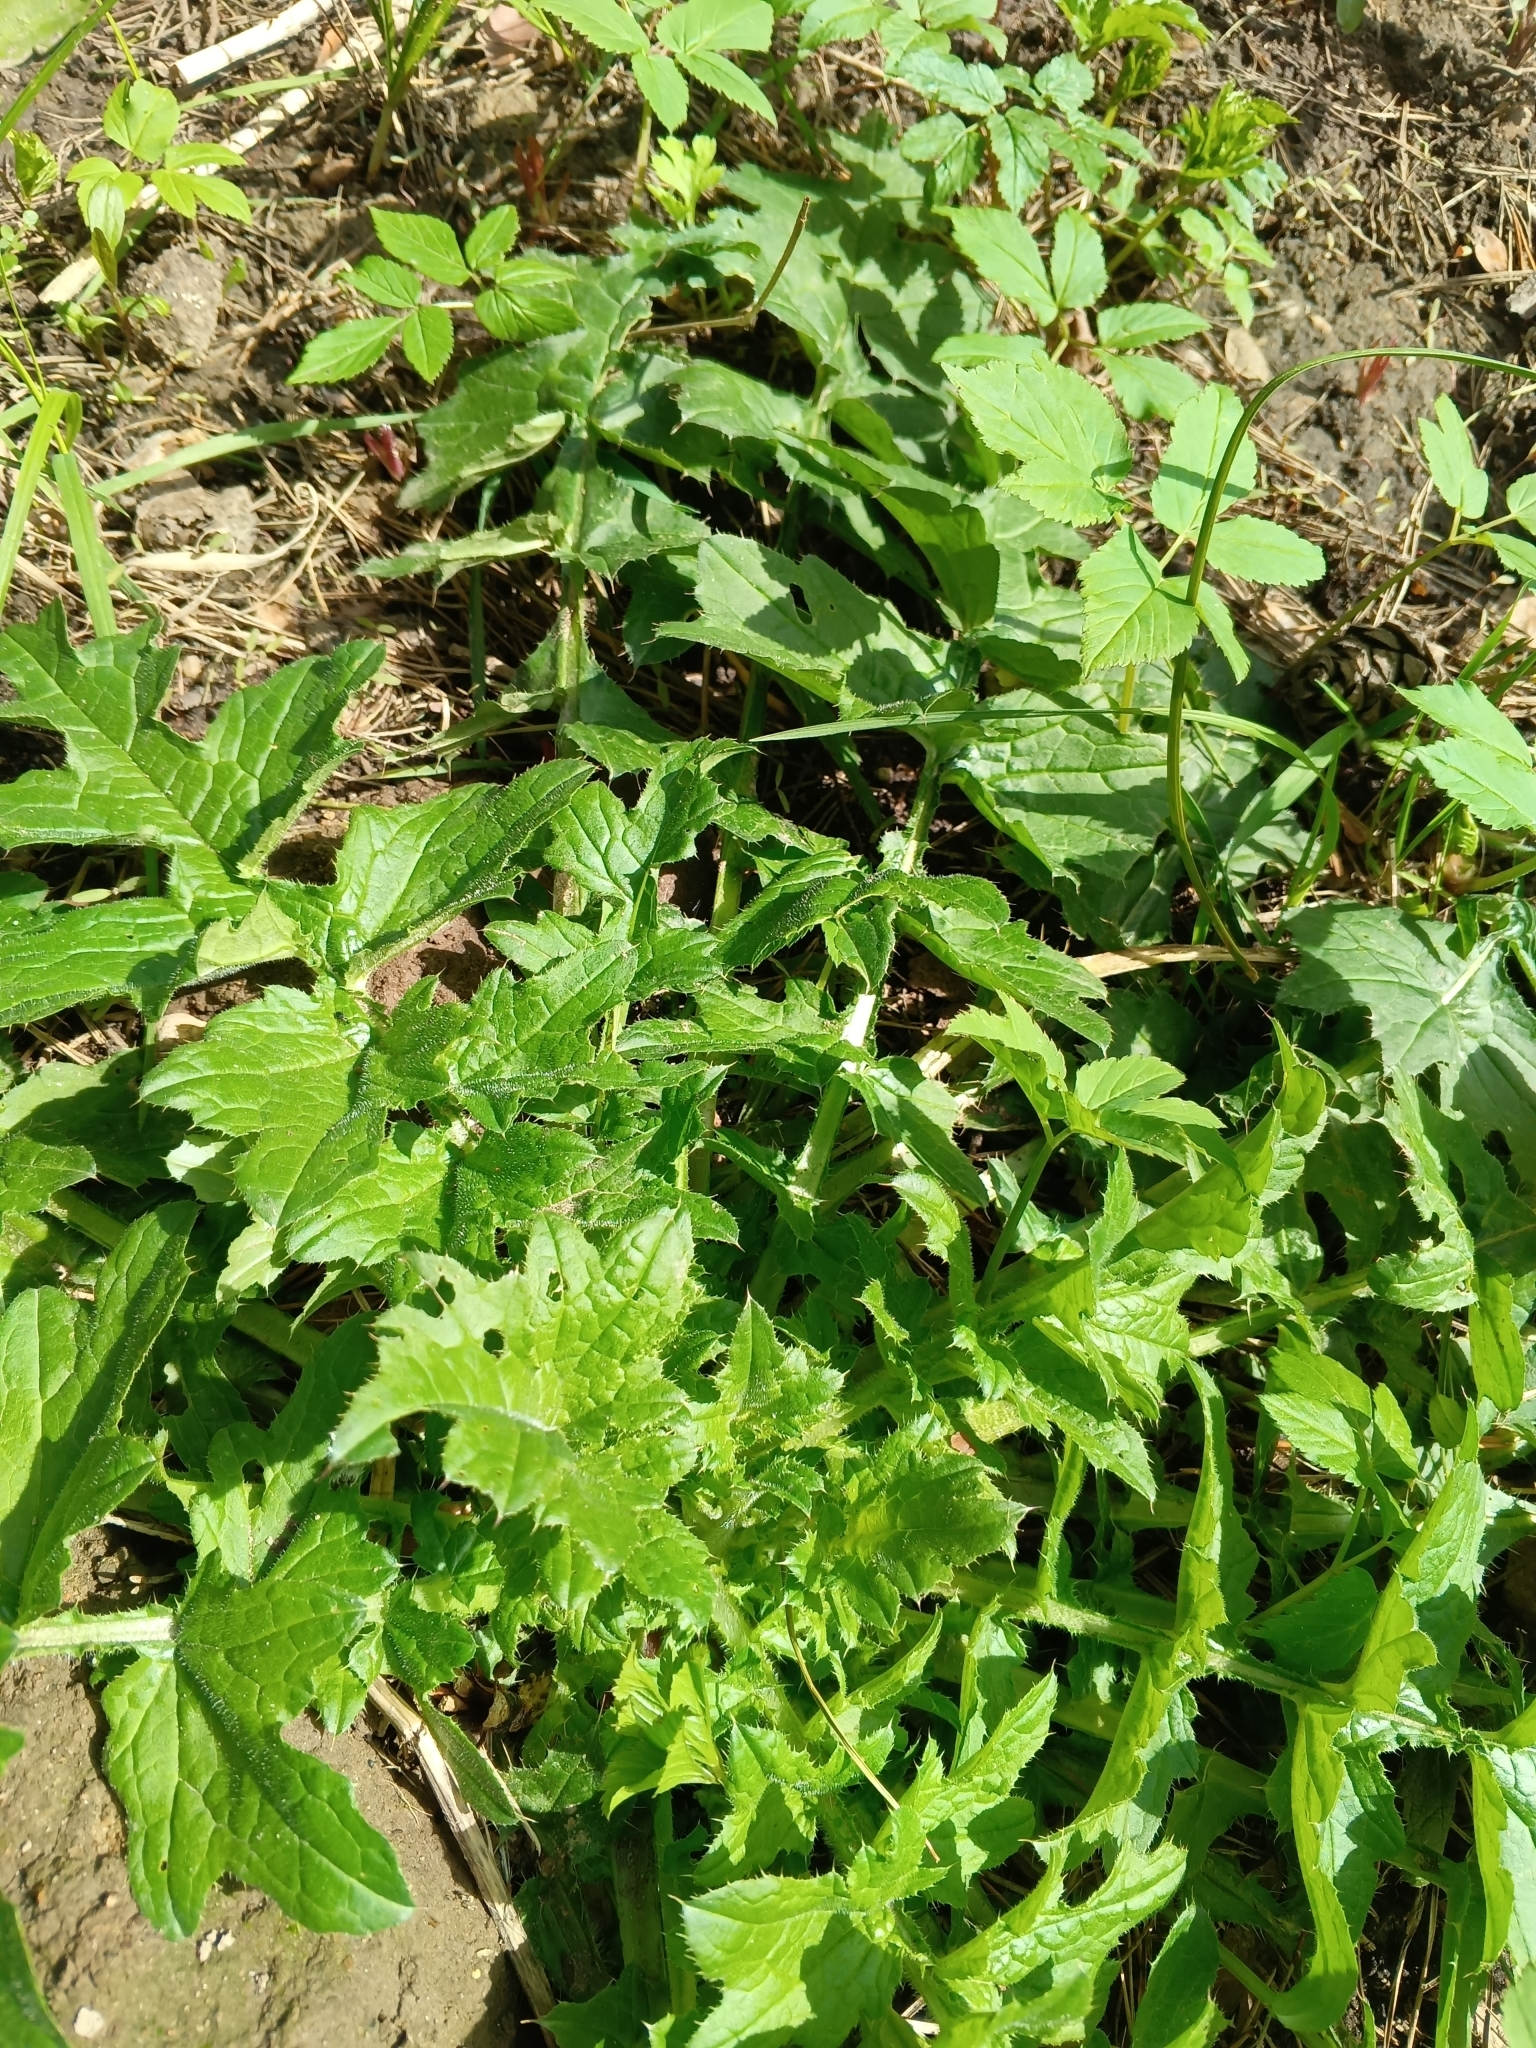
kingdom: Plantae
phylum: Tracheophyta
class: Magnoliopsida
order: Asterales
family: Asteraceae
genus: Carduus
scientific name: Carduus crispus
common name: Welted thistle
